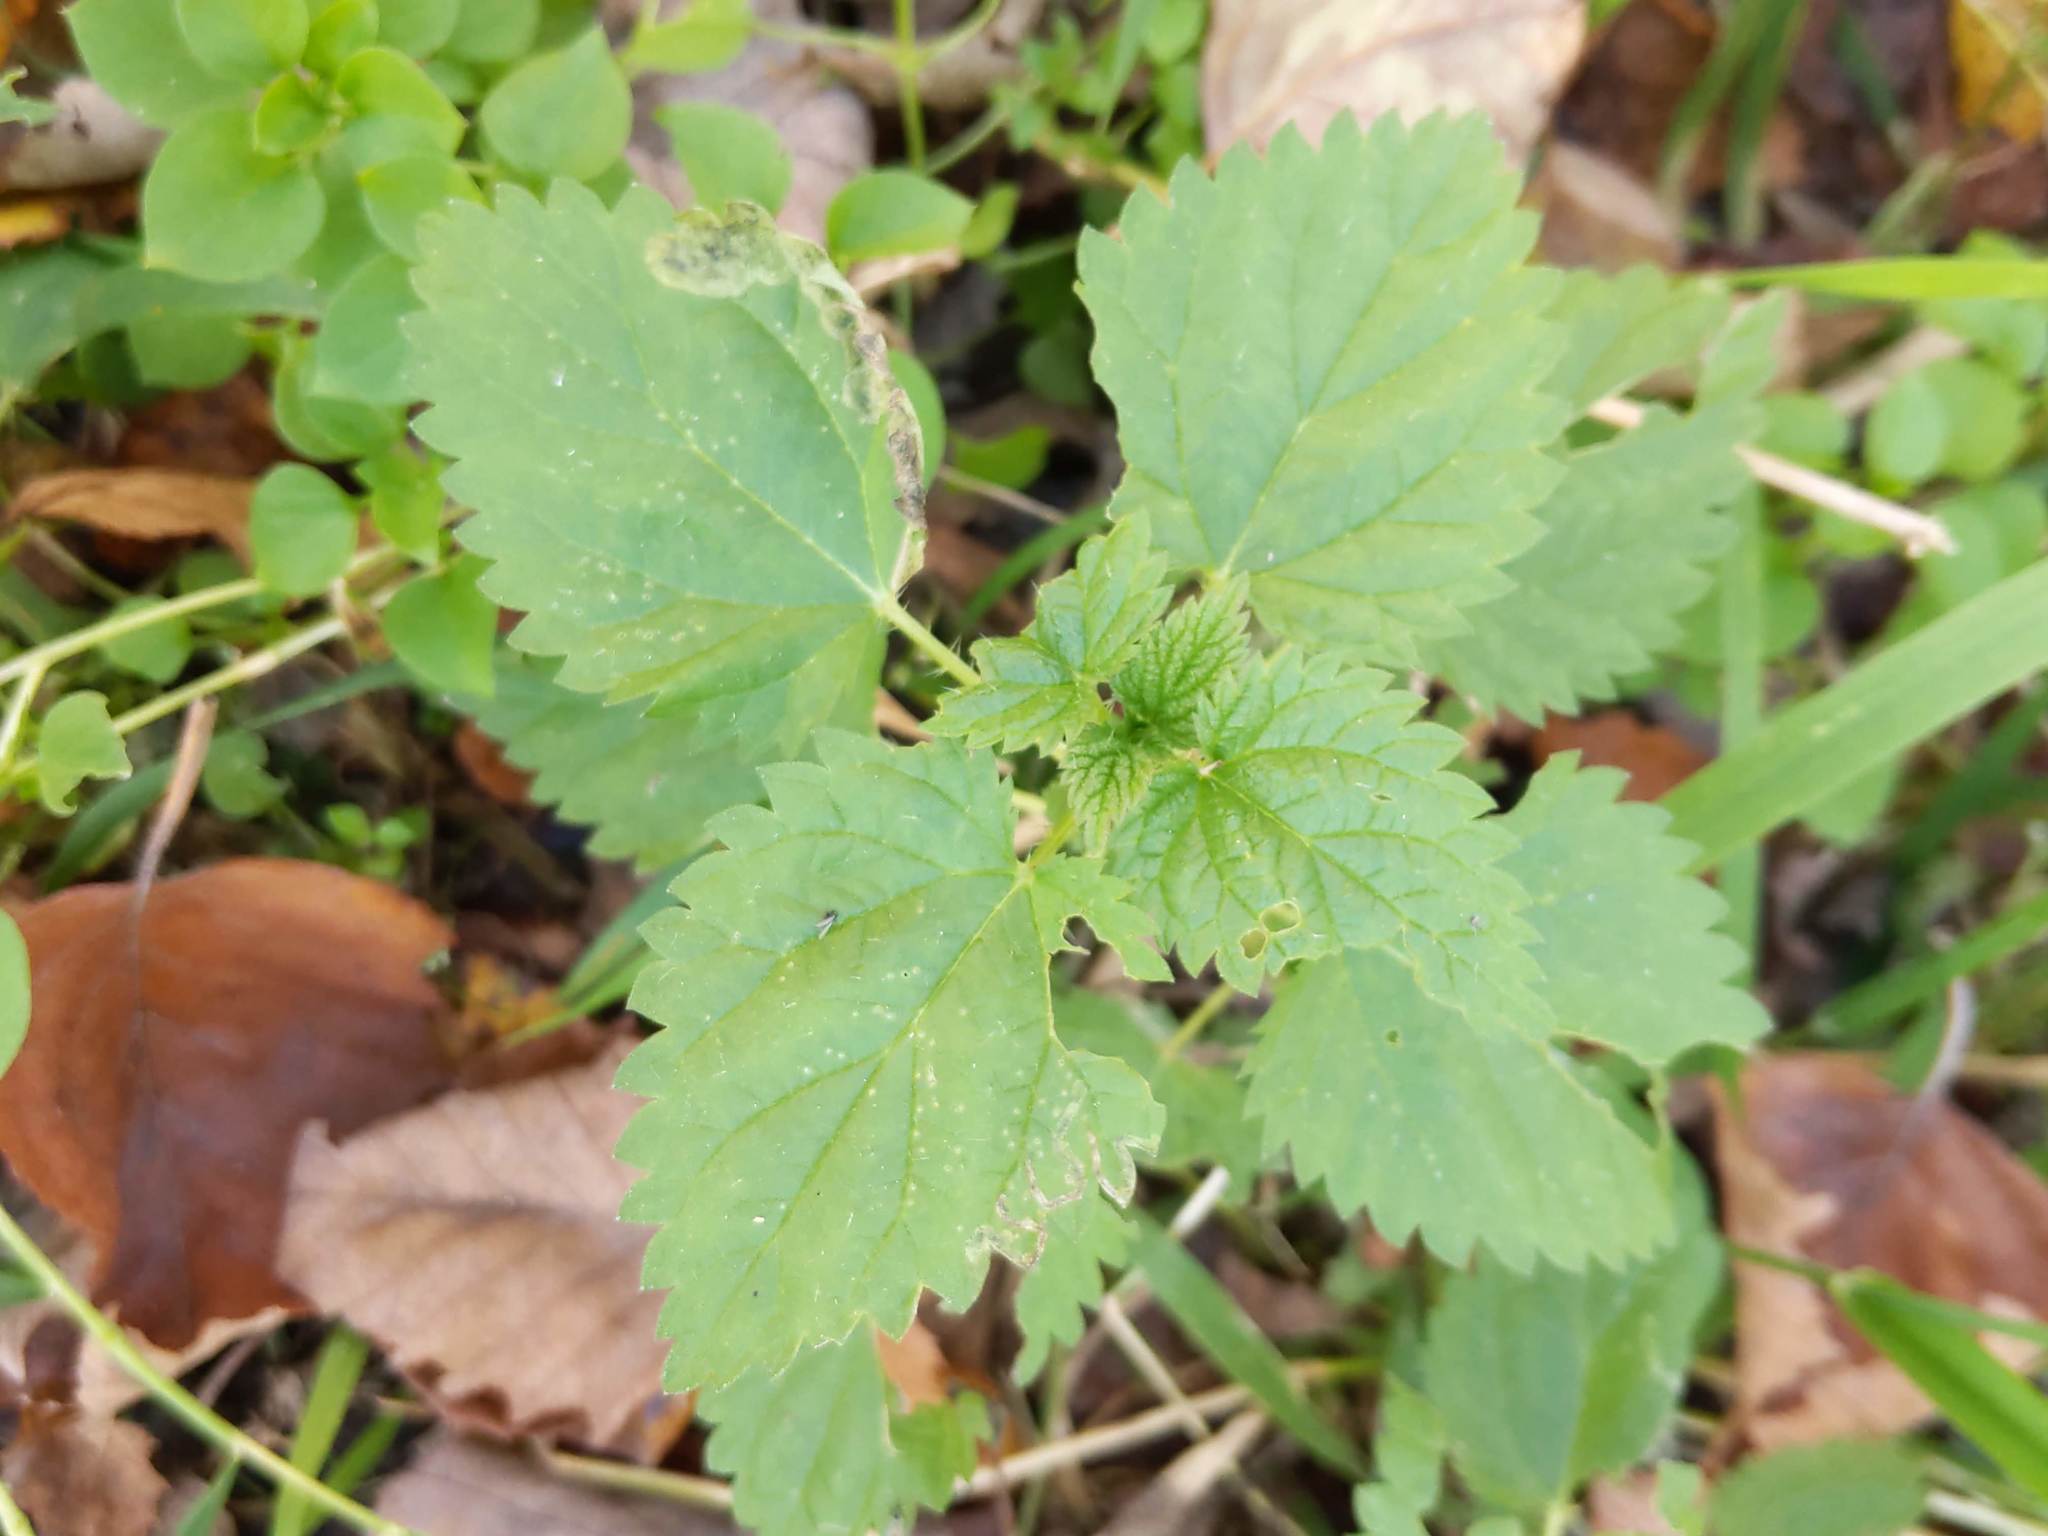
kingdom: Plantae
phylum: Tracheophyta
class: Magnoliopsida
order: Rosales
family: Urticaceae
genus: Urtica
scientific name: Urtica dioica
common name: Common nettle
